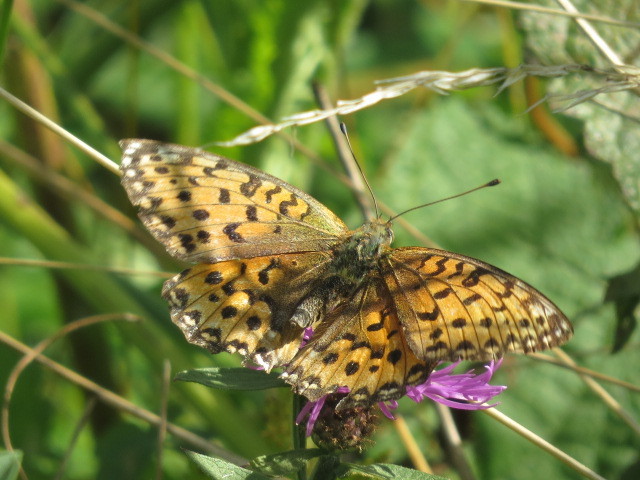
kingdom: Animalia
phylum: Arthropoda
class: Insecta
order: Lepidoptera
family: Nymphalidae
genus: Speyeria
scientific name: Speyeria aglaja
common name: Dark green fritillary
